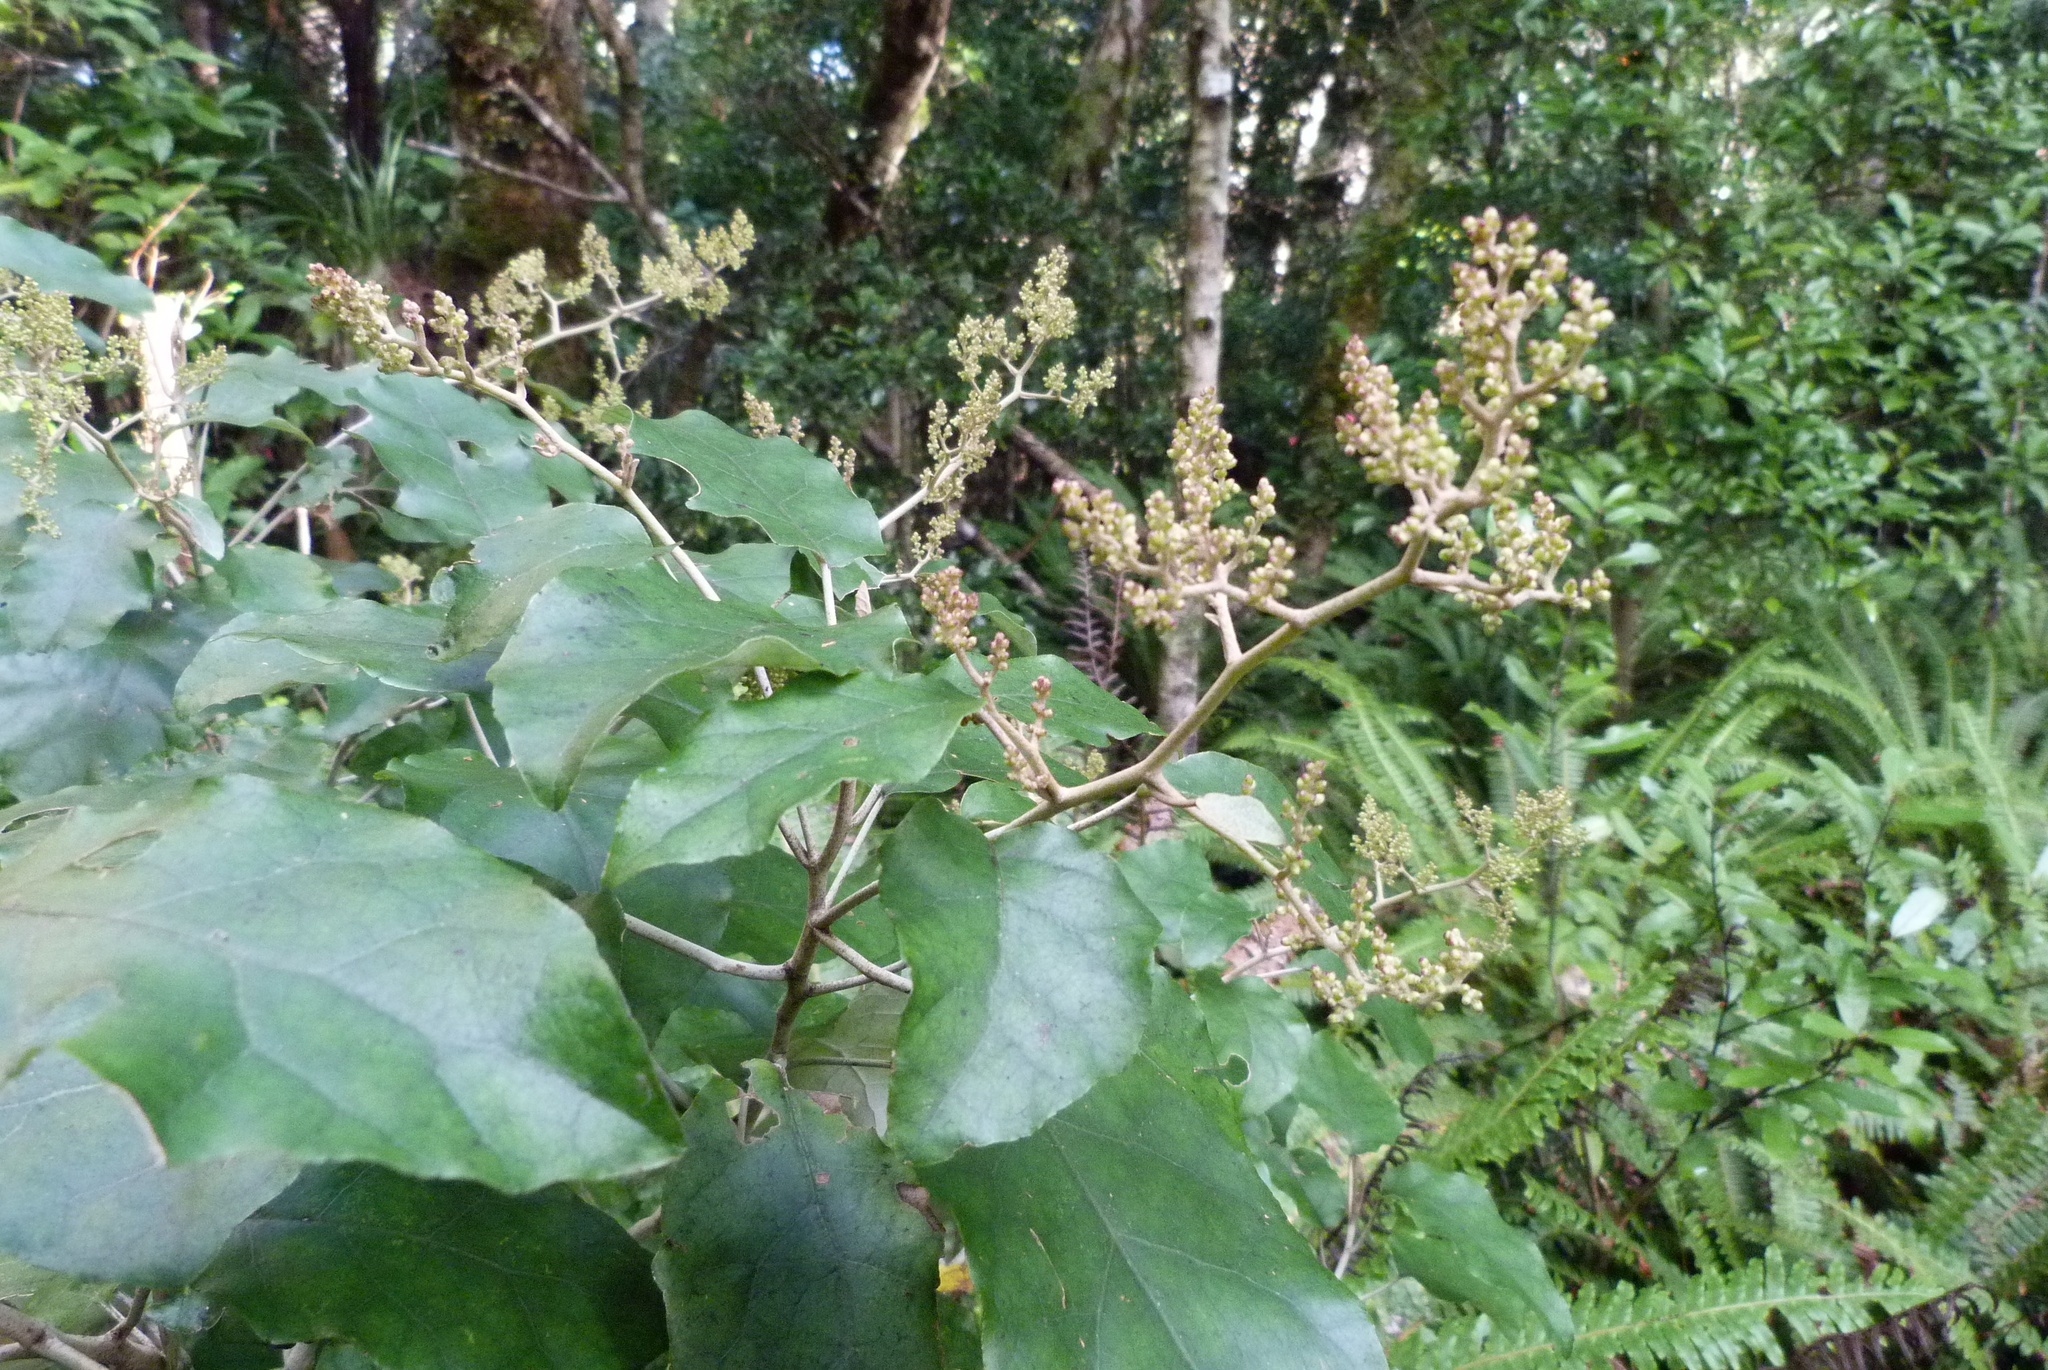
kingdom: Plantae
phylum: Tracheophyta
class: Magnoliopsida
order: Asterales
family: Asteraceae
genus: Brachyglottis
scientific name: Brachyglottis repanda
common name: Hedge ragwort
